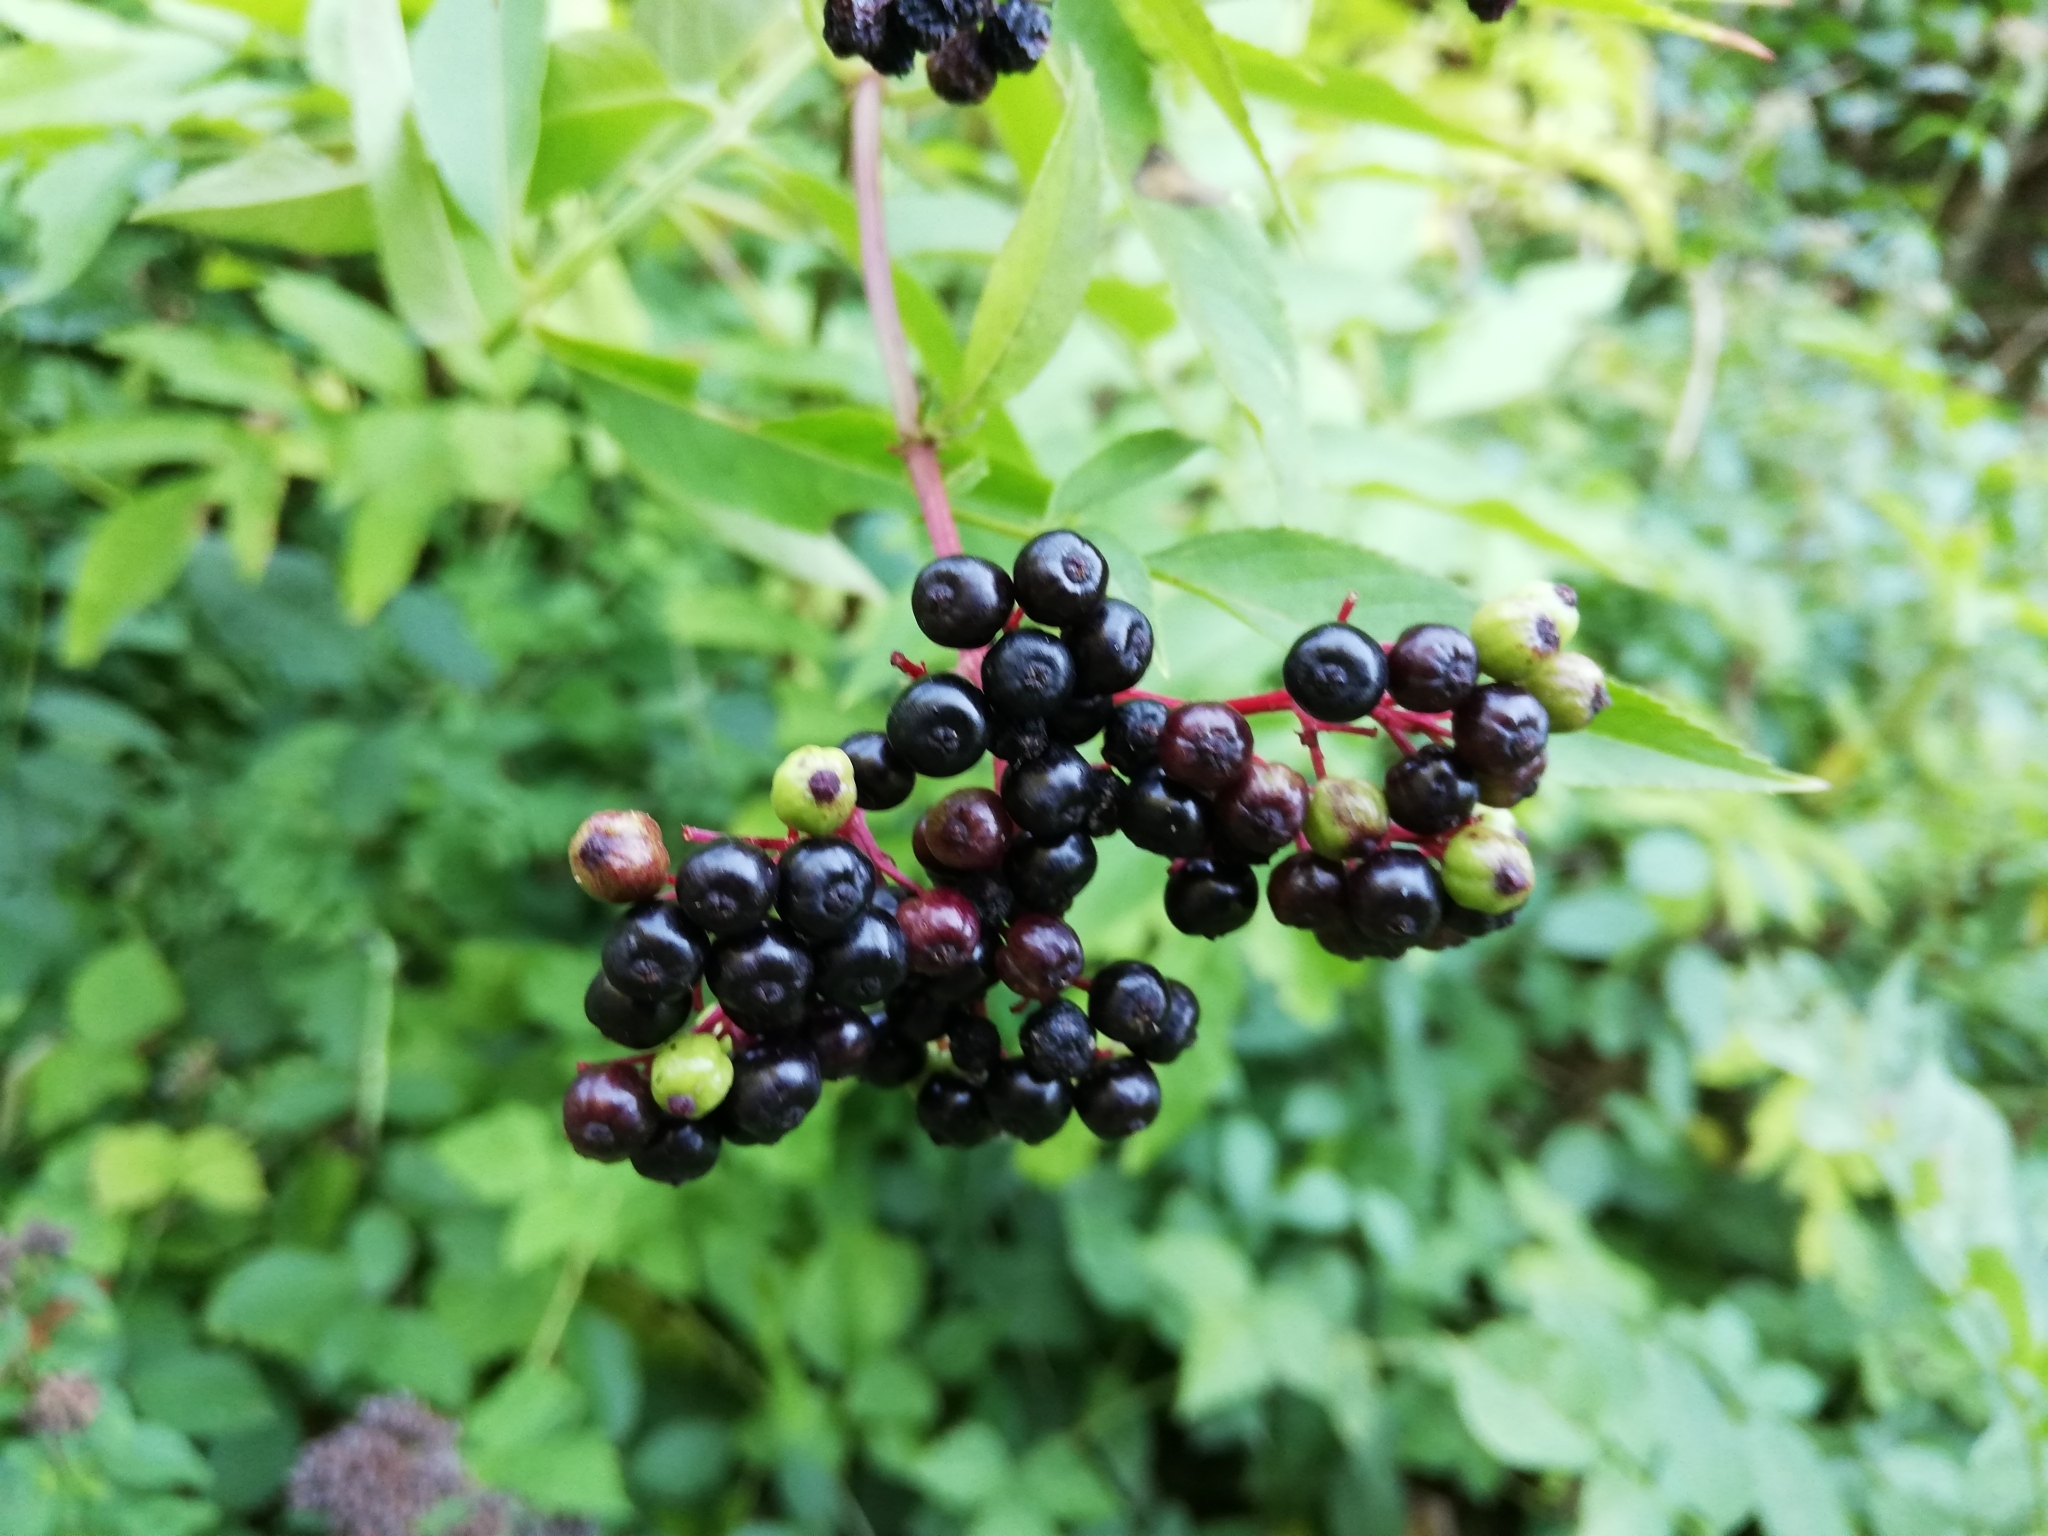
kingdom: Plantae
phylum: Tracheophyta
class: Magnoliopsida
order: Dipsacales
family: Viburnaceae
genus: Sambucus
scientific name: Sambucus ebulus
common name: Dwarf elder
